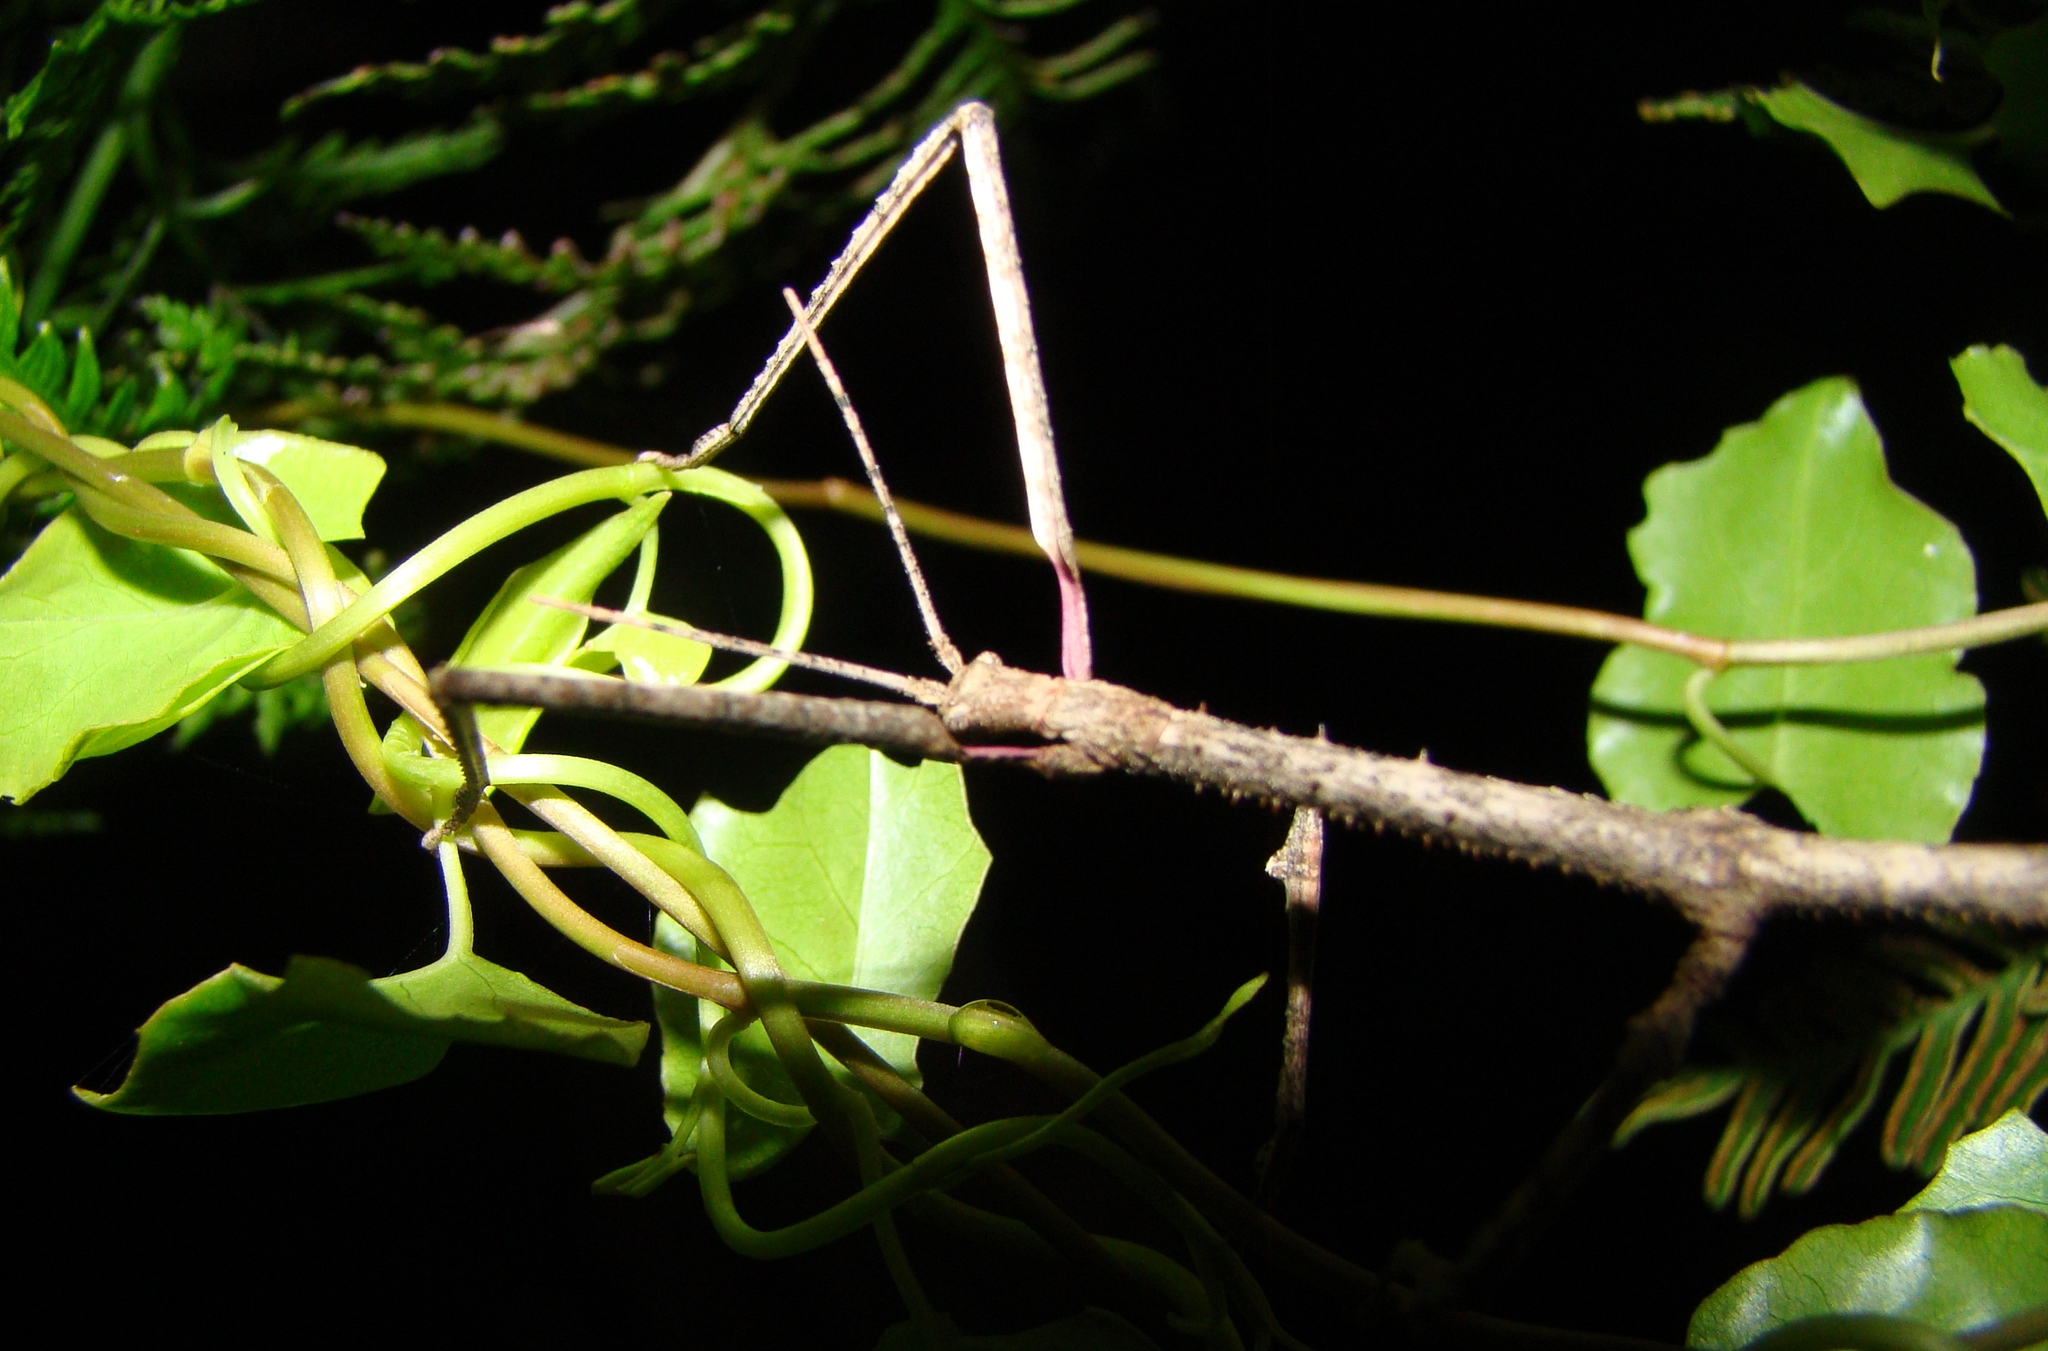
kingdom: Animalia
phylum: Arthropoda
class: Insecta
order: Phasmida
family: Phasmatidae
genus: Argosarchus
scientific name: Argosarchus horridus
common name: Bristly stick insect
